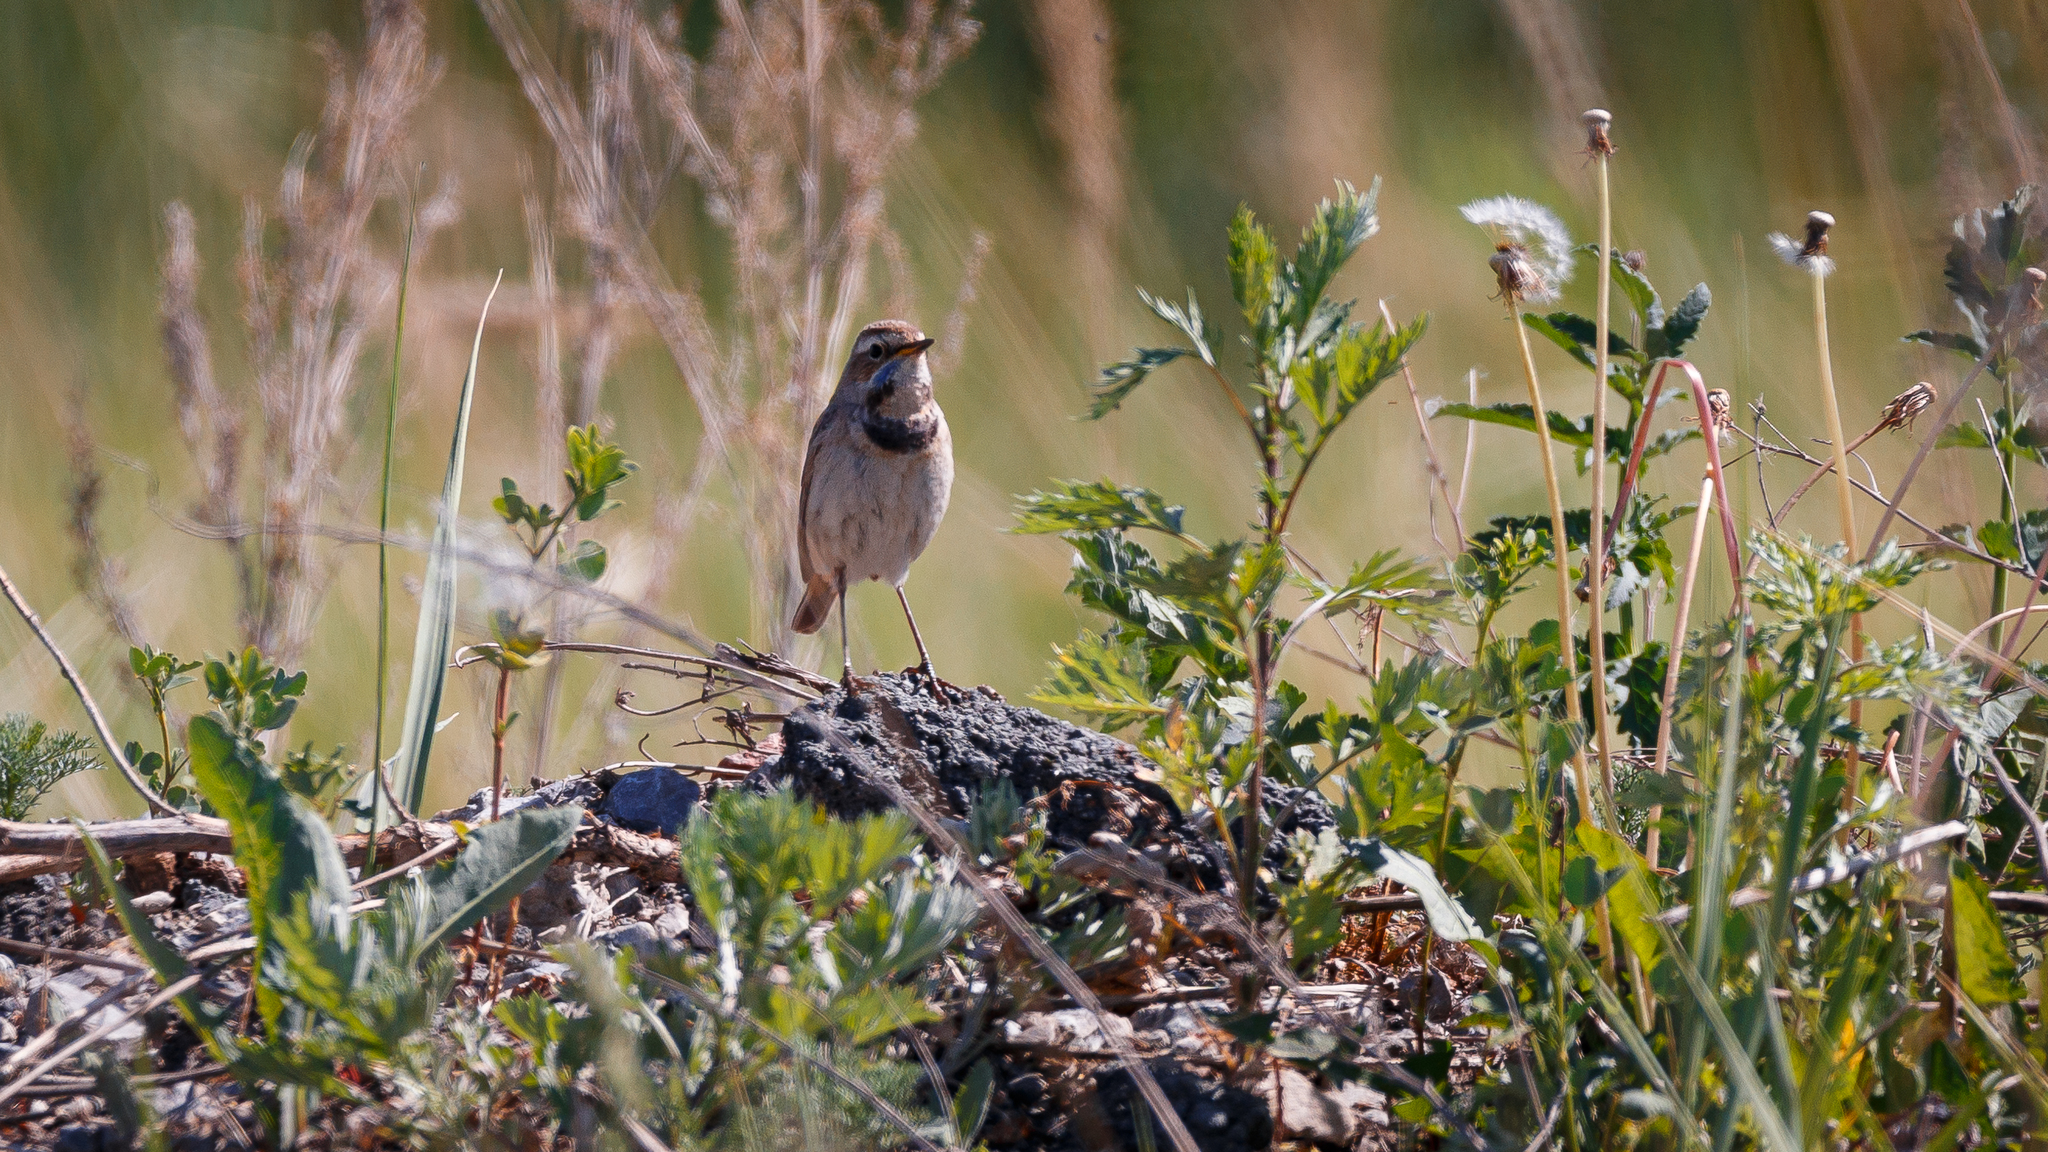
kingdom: Animalia
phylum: Chordata
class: Aves
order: Passeriformes
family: Muscicapidae
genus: Luscinia
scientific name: Luscinia svecica
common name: Bluethroat
